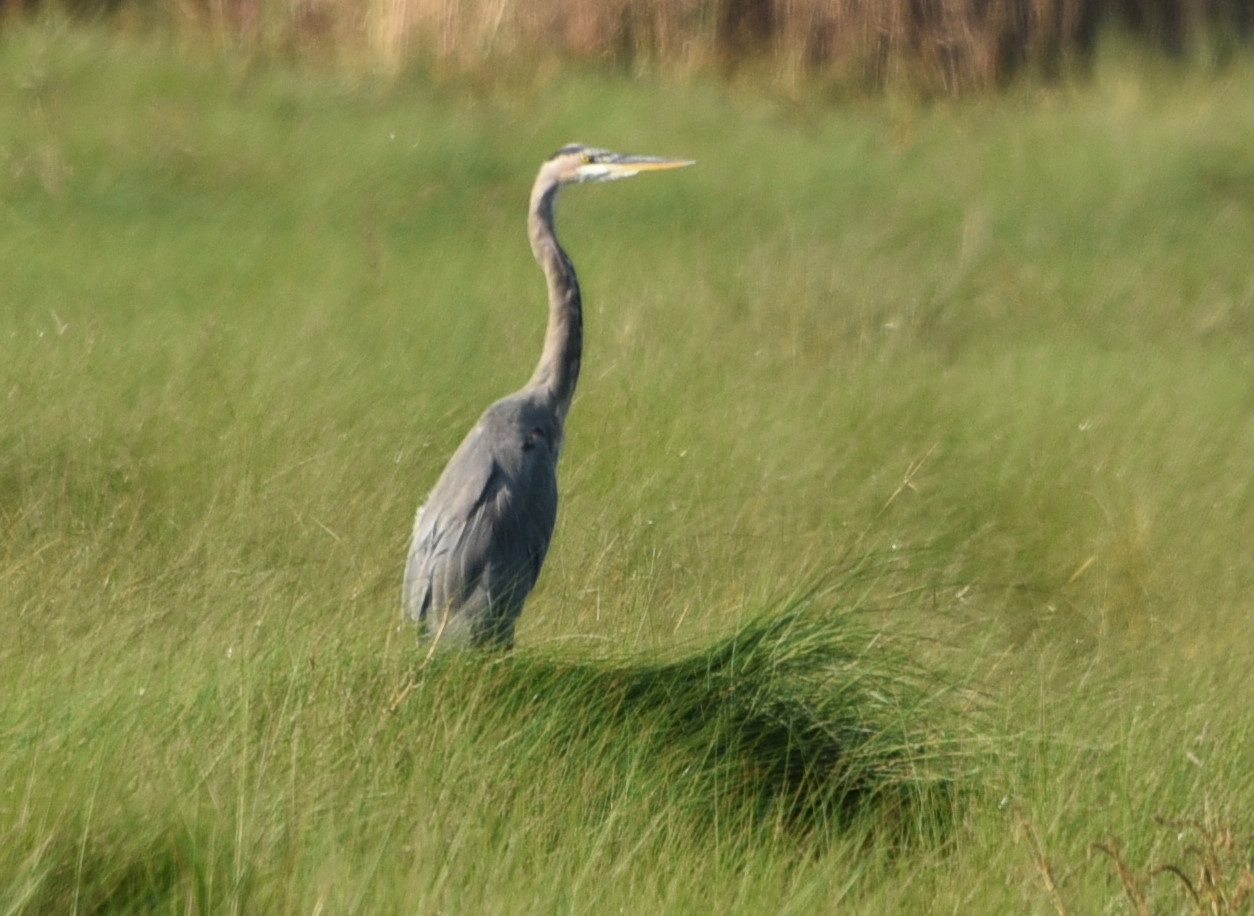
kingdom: Animalia
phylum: Chordata
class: Aves
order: Pelecaniformes
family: Ardeidae
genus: Ardea
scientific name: Ardea herodias
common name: Great blue heron
